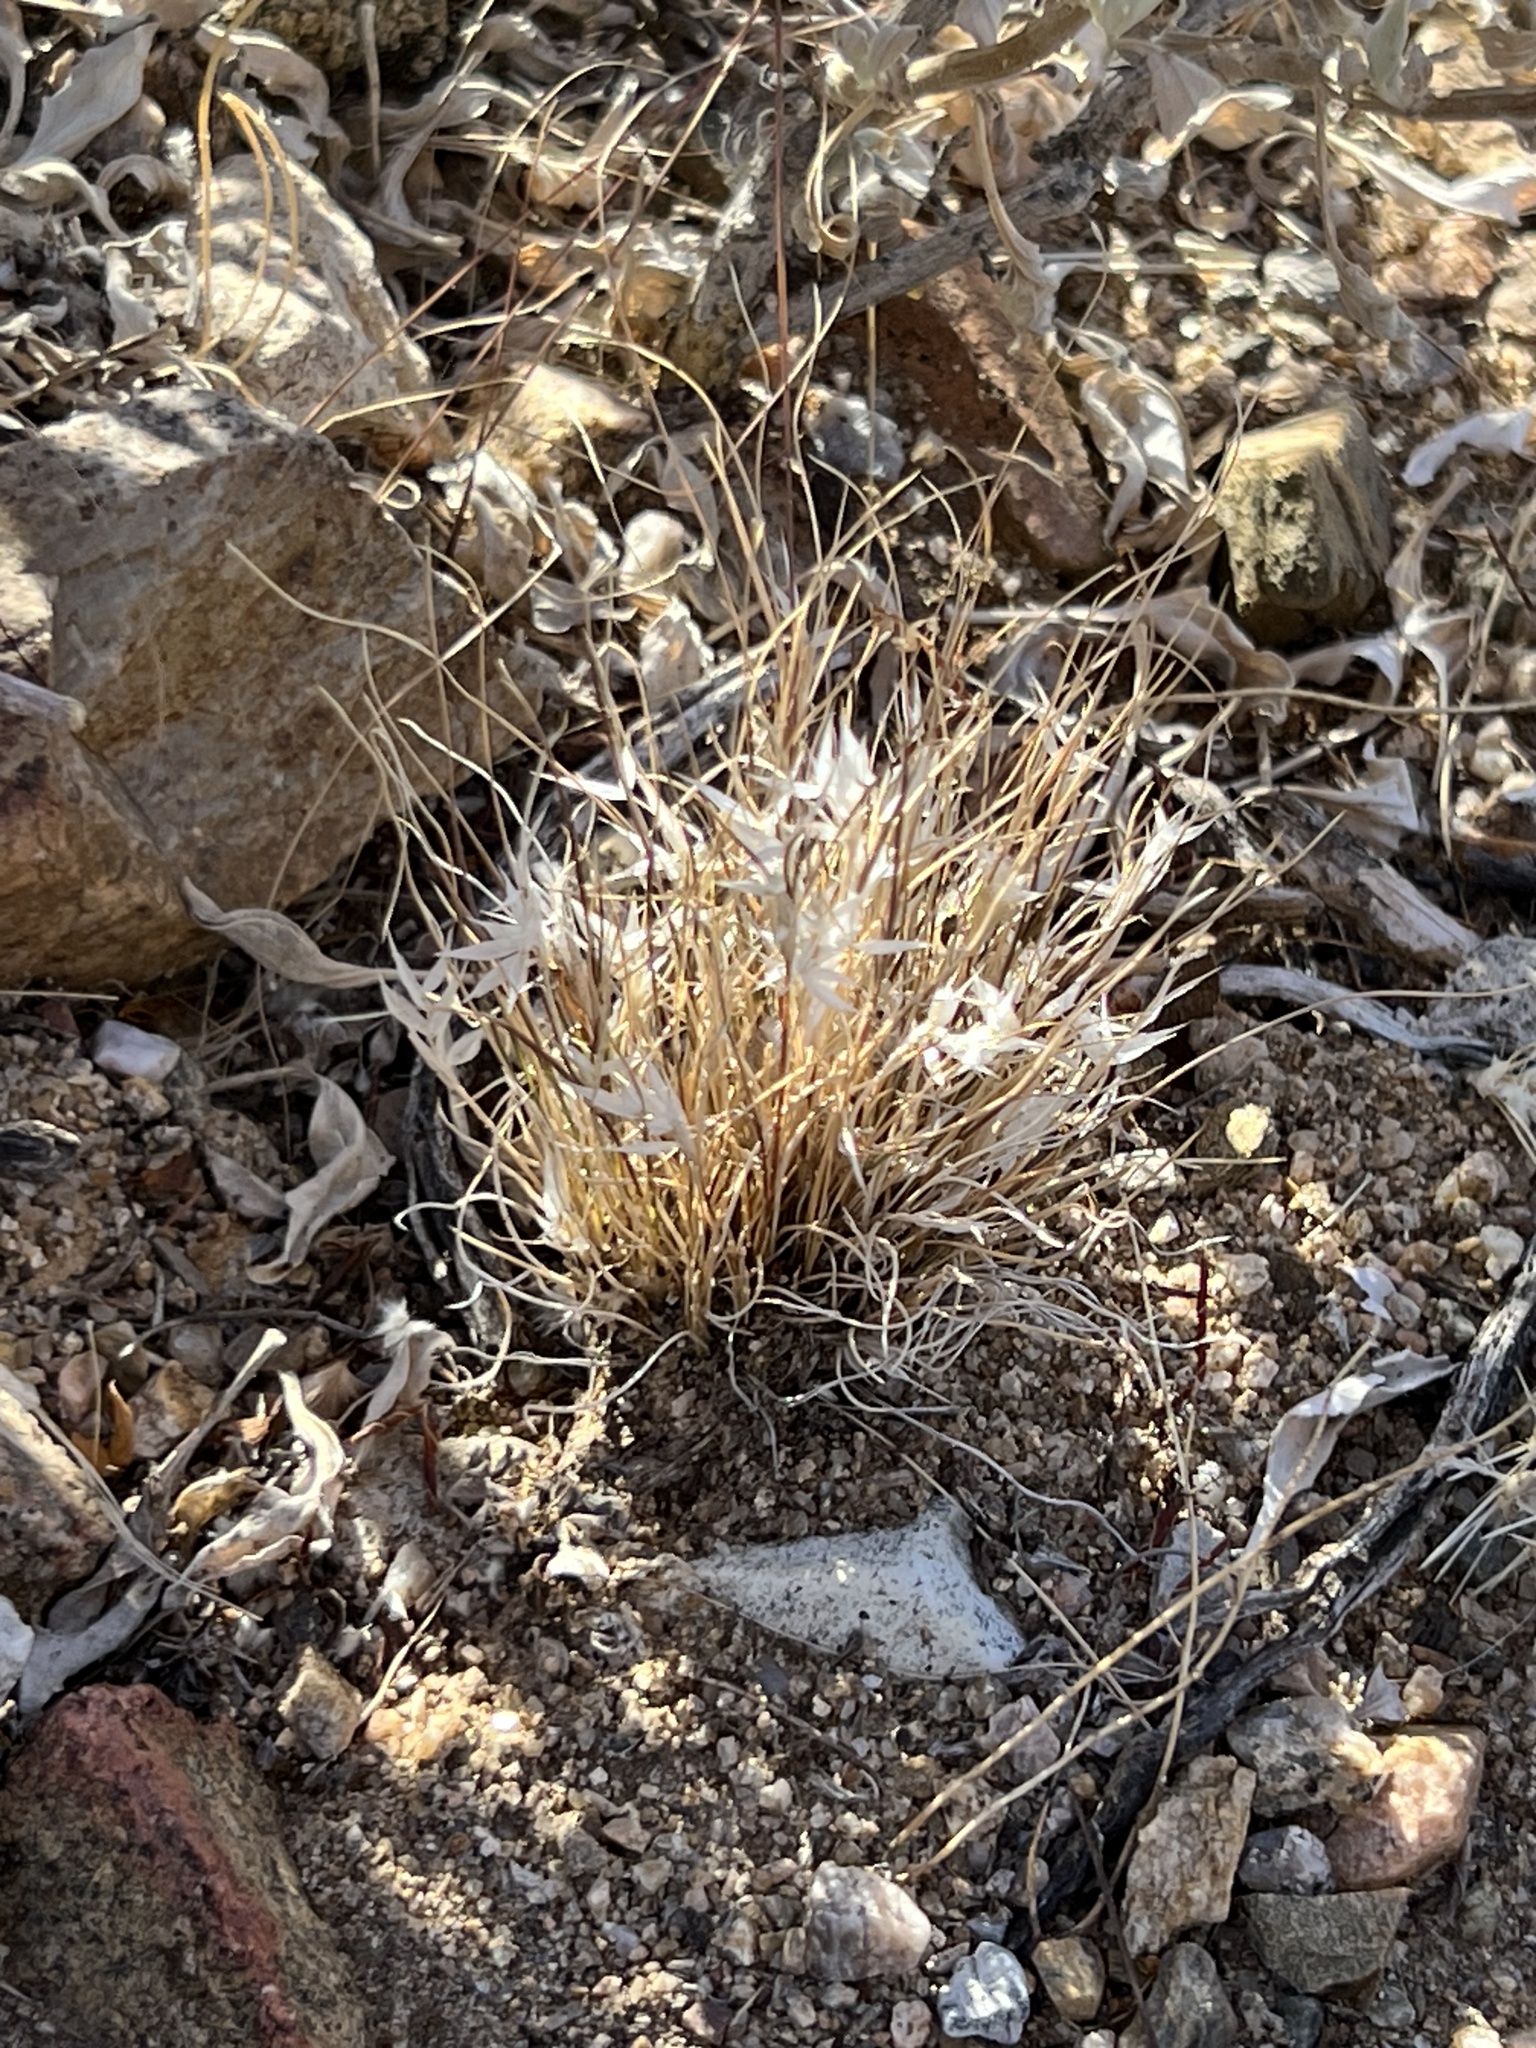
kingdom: Plantae
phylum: Tracheophyta
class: Liliopsida
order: Poales
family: Poaceae
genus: Dasyochloa
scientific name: Dasyochloa pulchella
